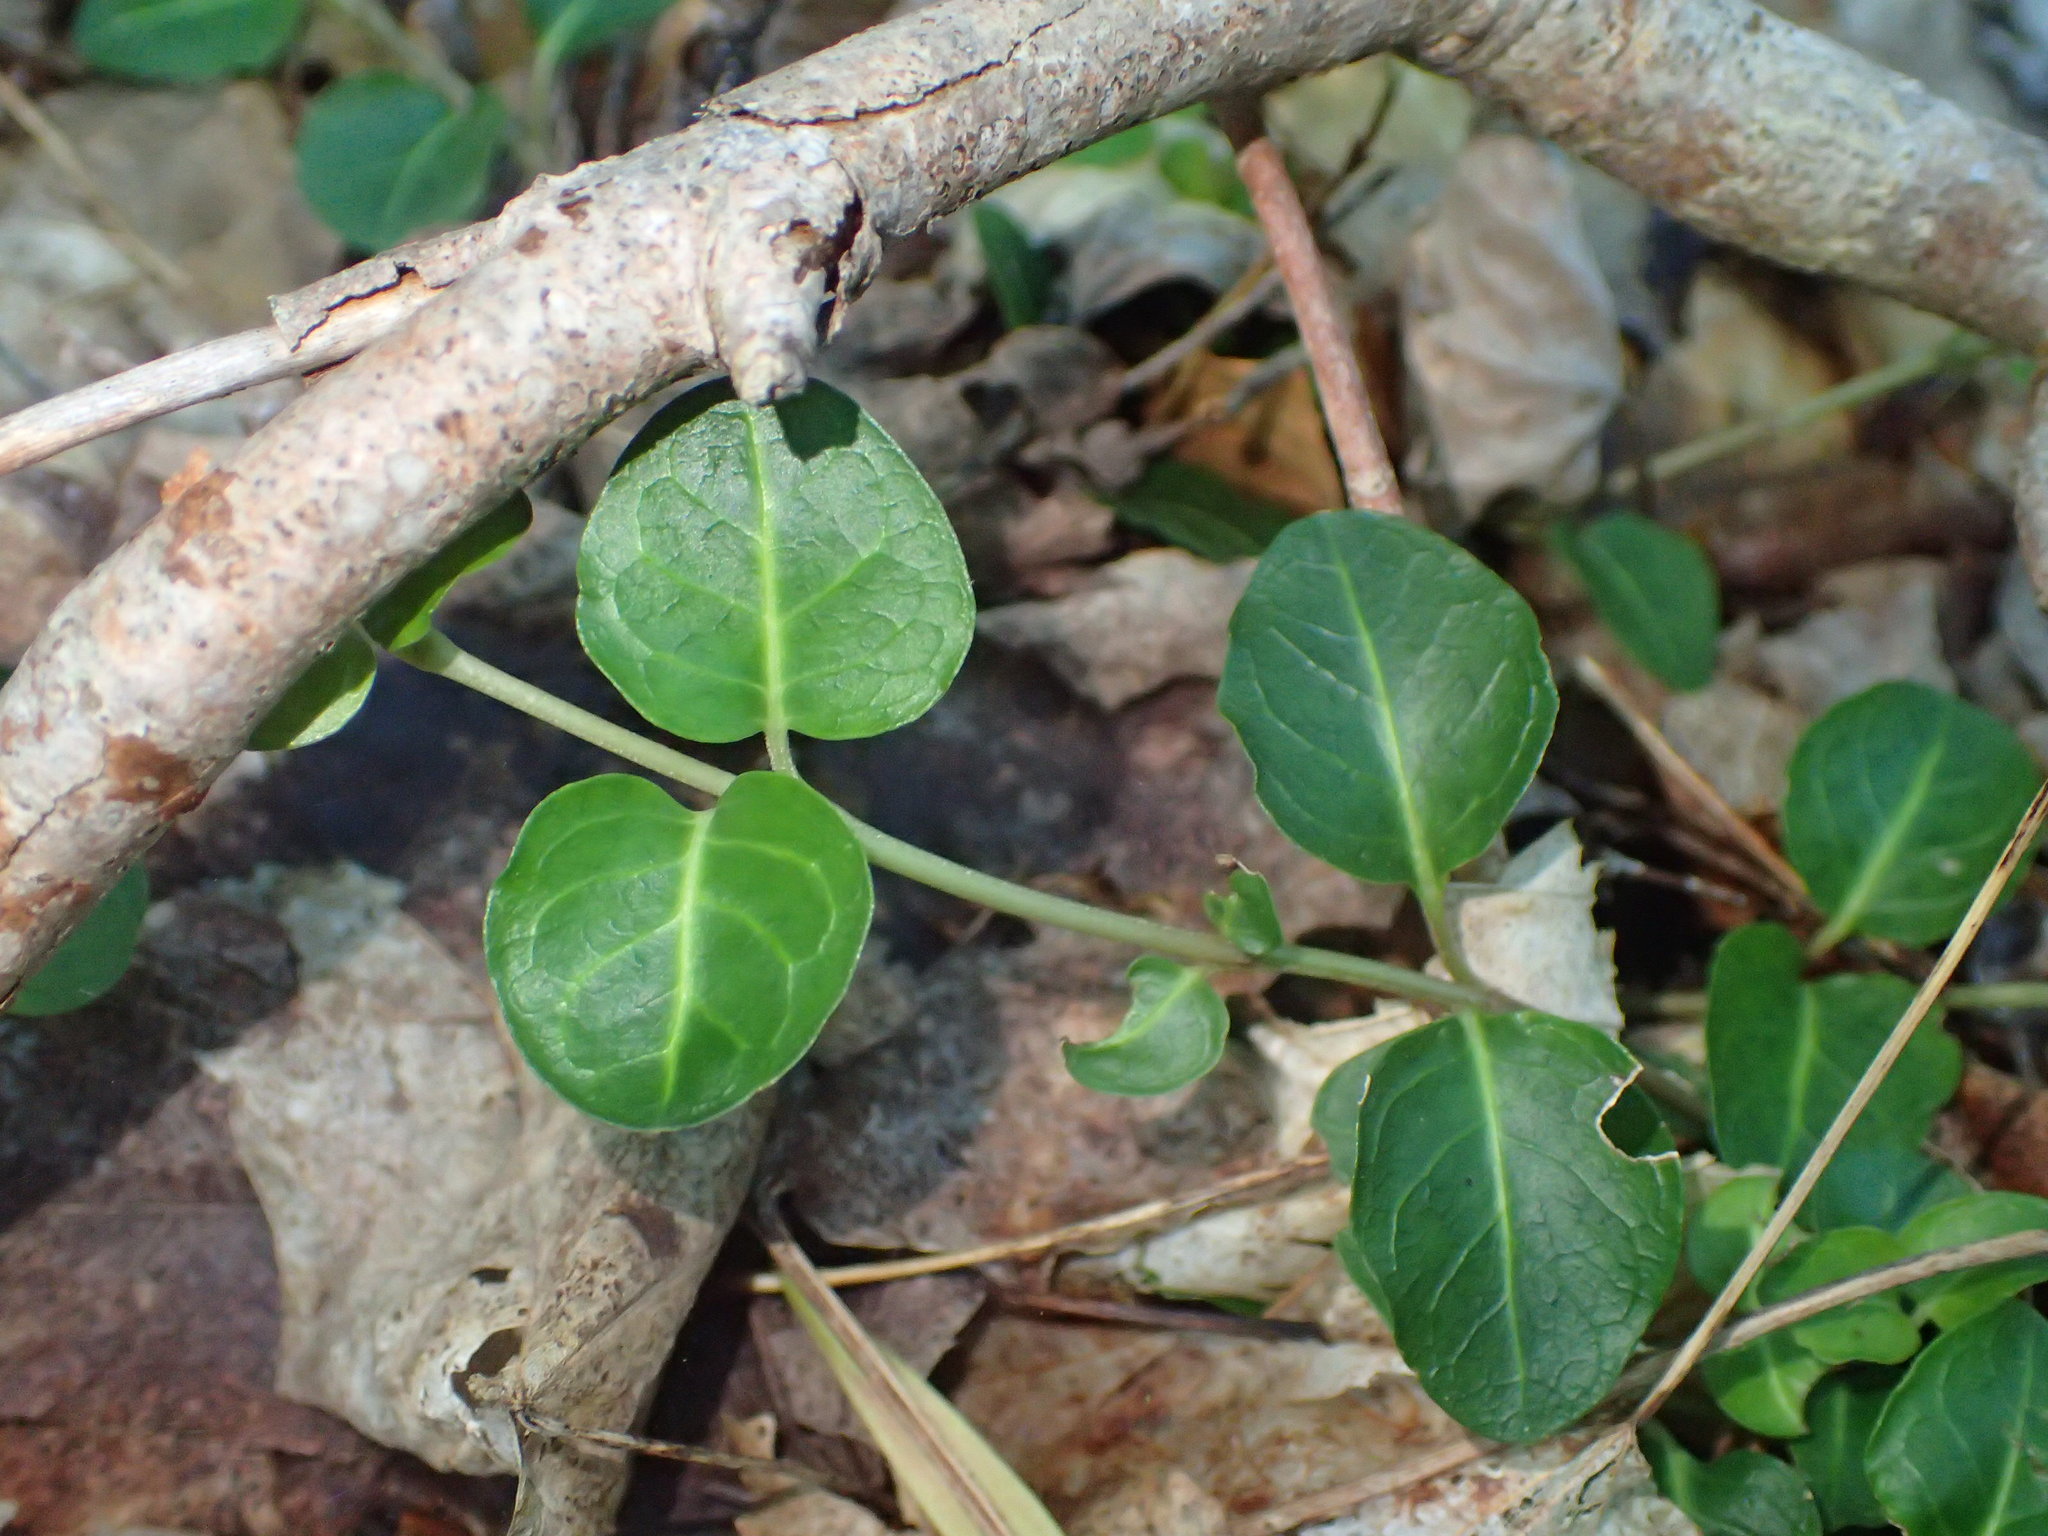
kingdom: Plantae
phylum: Tracheophyta
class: Magnoliopsida
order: Gentianales
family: Rubiaceae
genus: Mitchella
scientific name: Mitchella repens
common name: Partridge-berry
